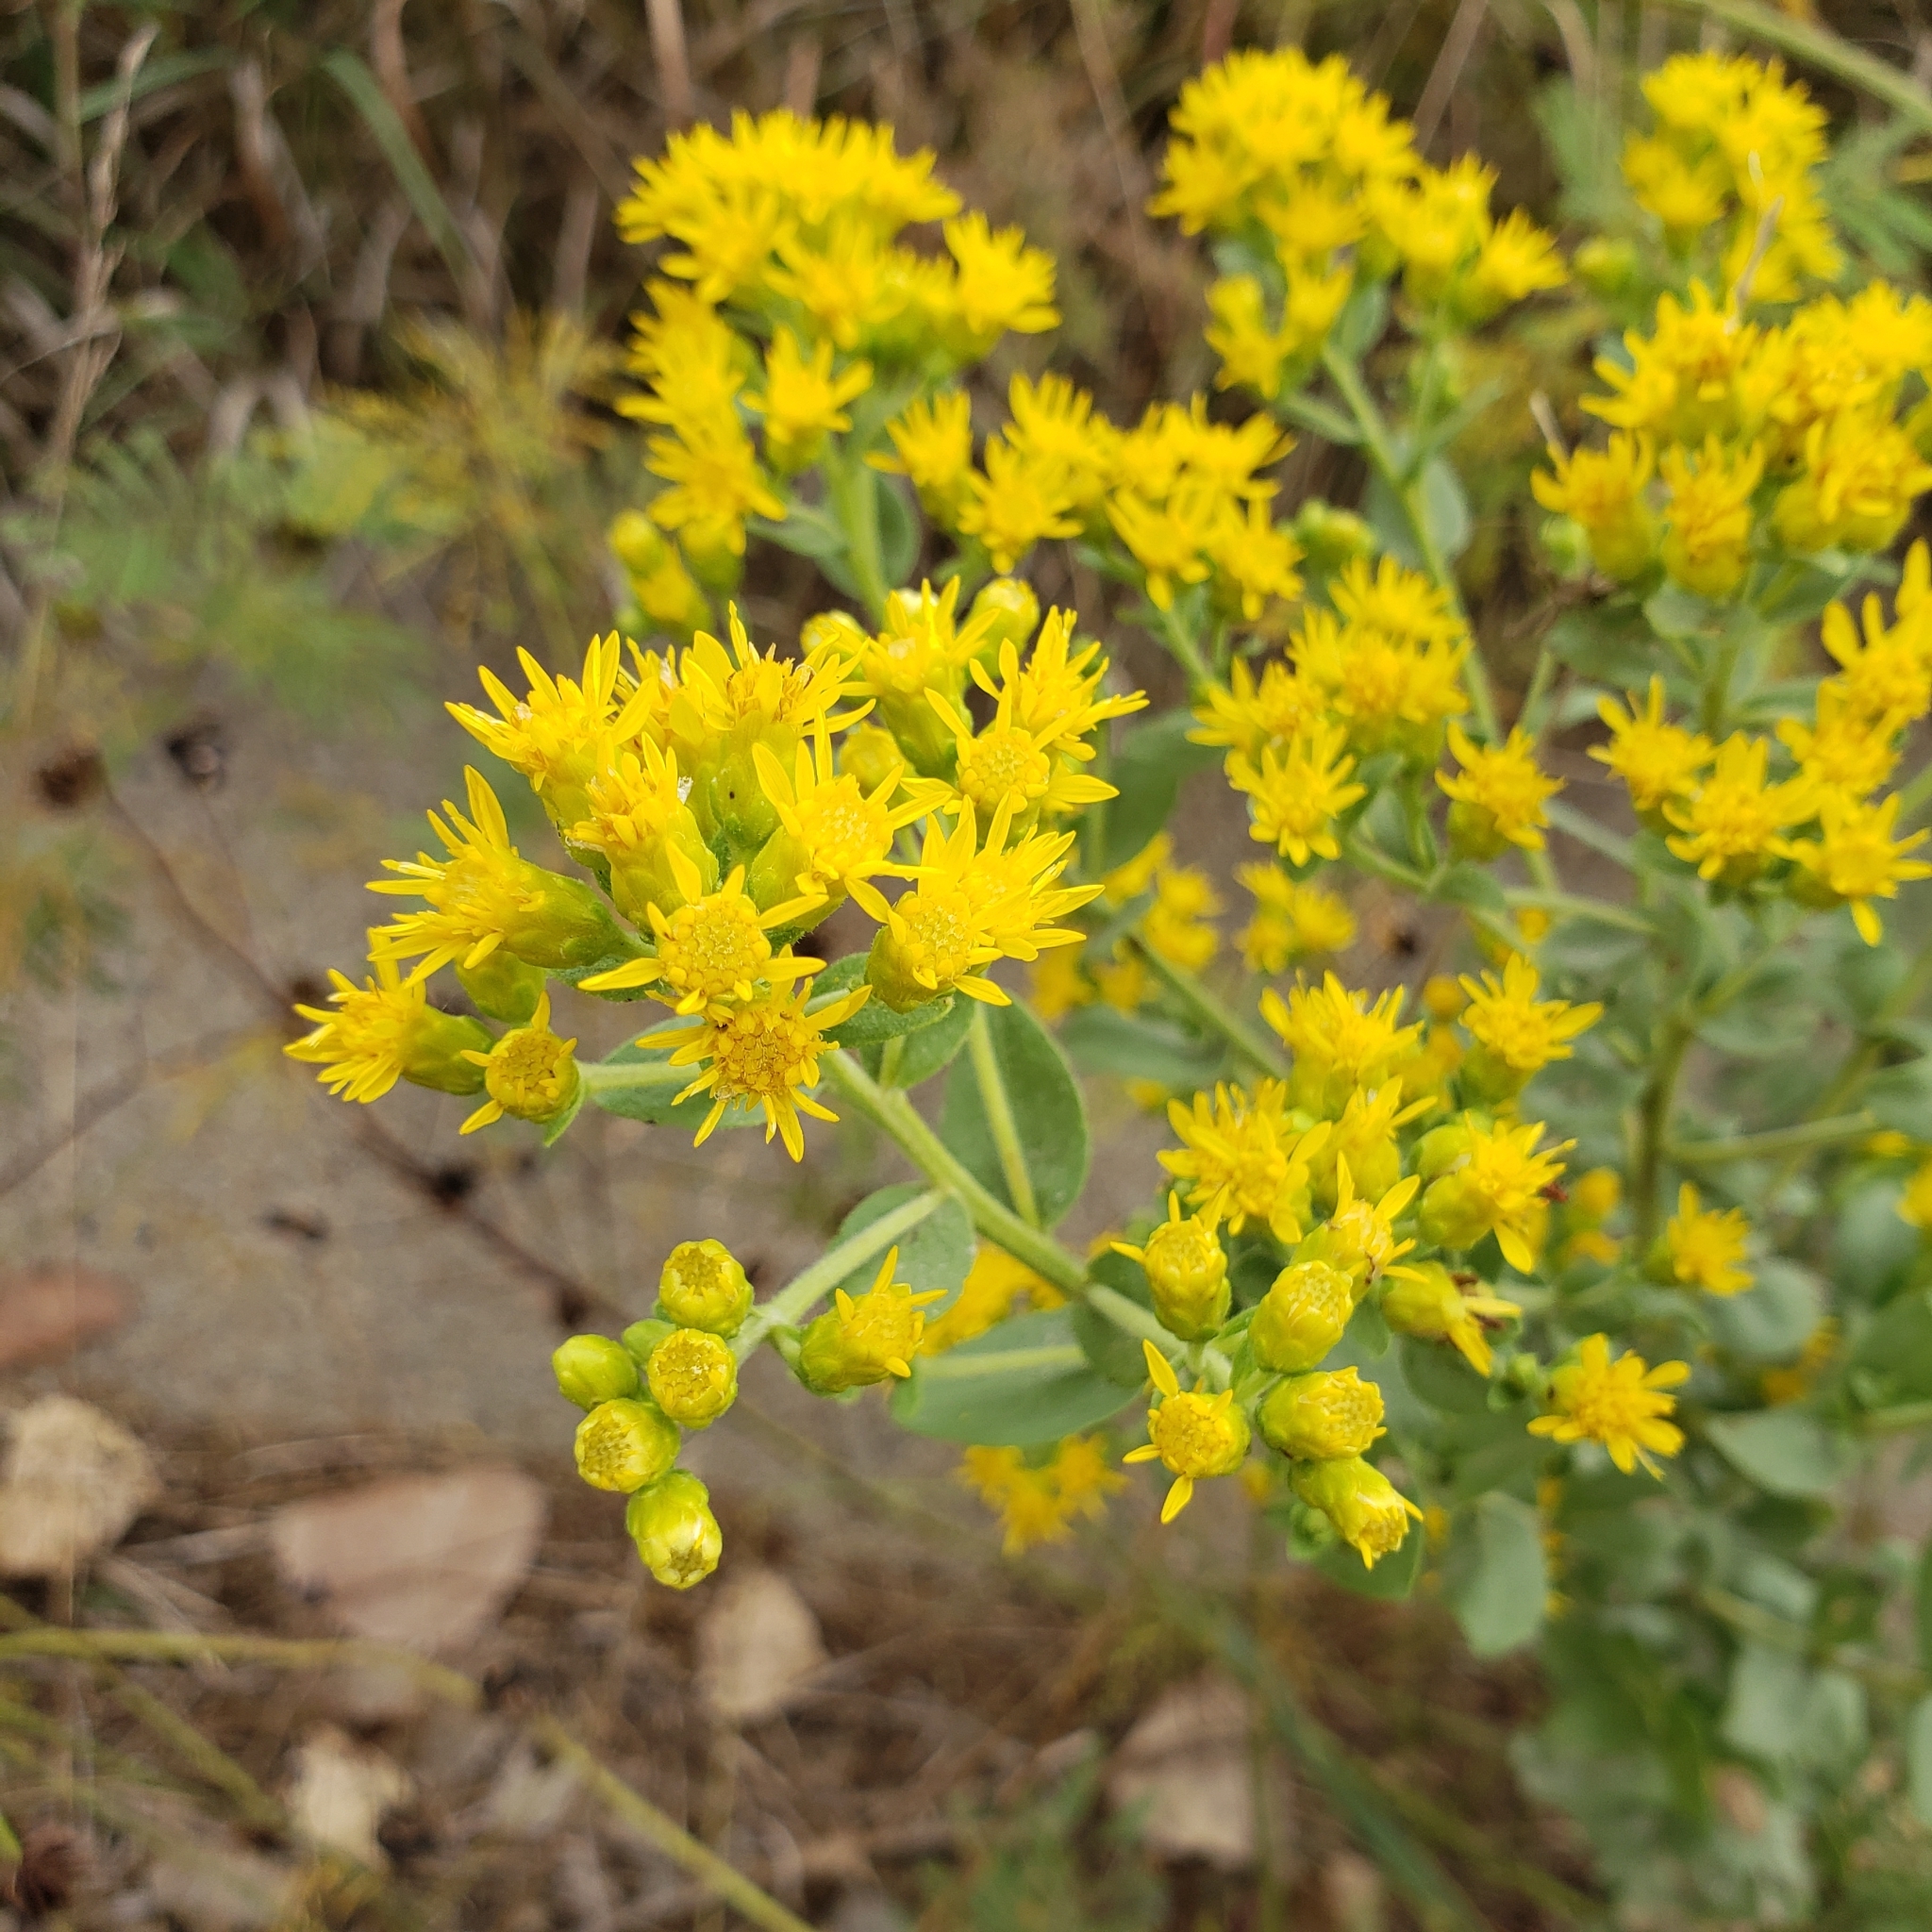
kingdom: Plantae
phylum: Tracheophyta
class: Magnoliopsida
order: Asterales
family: Asteraceae
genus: Solidago
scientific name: Solidago rigida
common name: Rigid goldenrod
